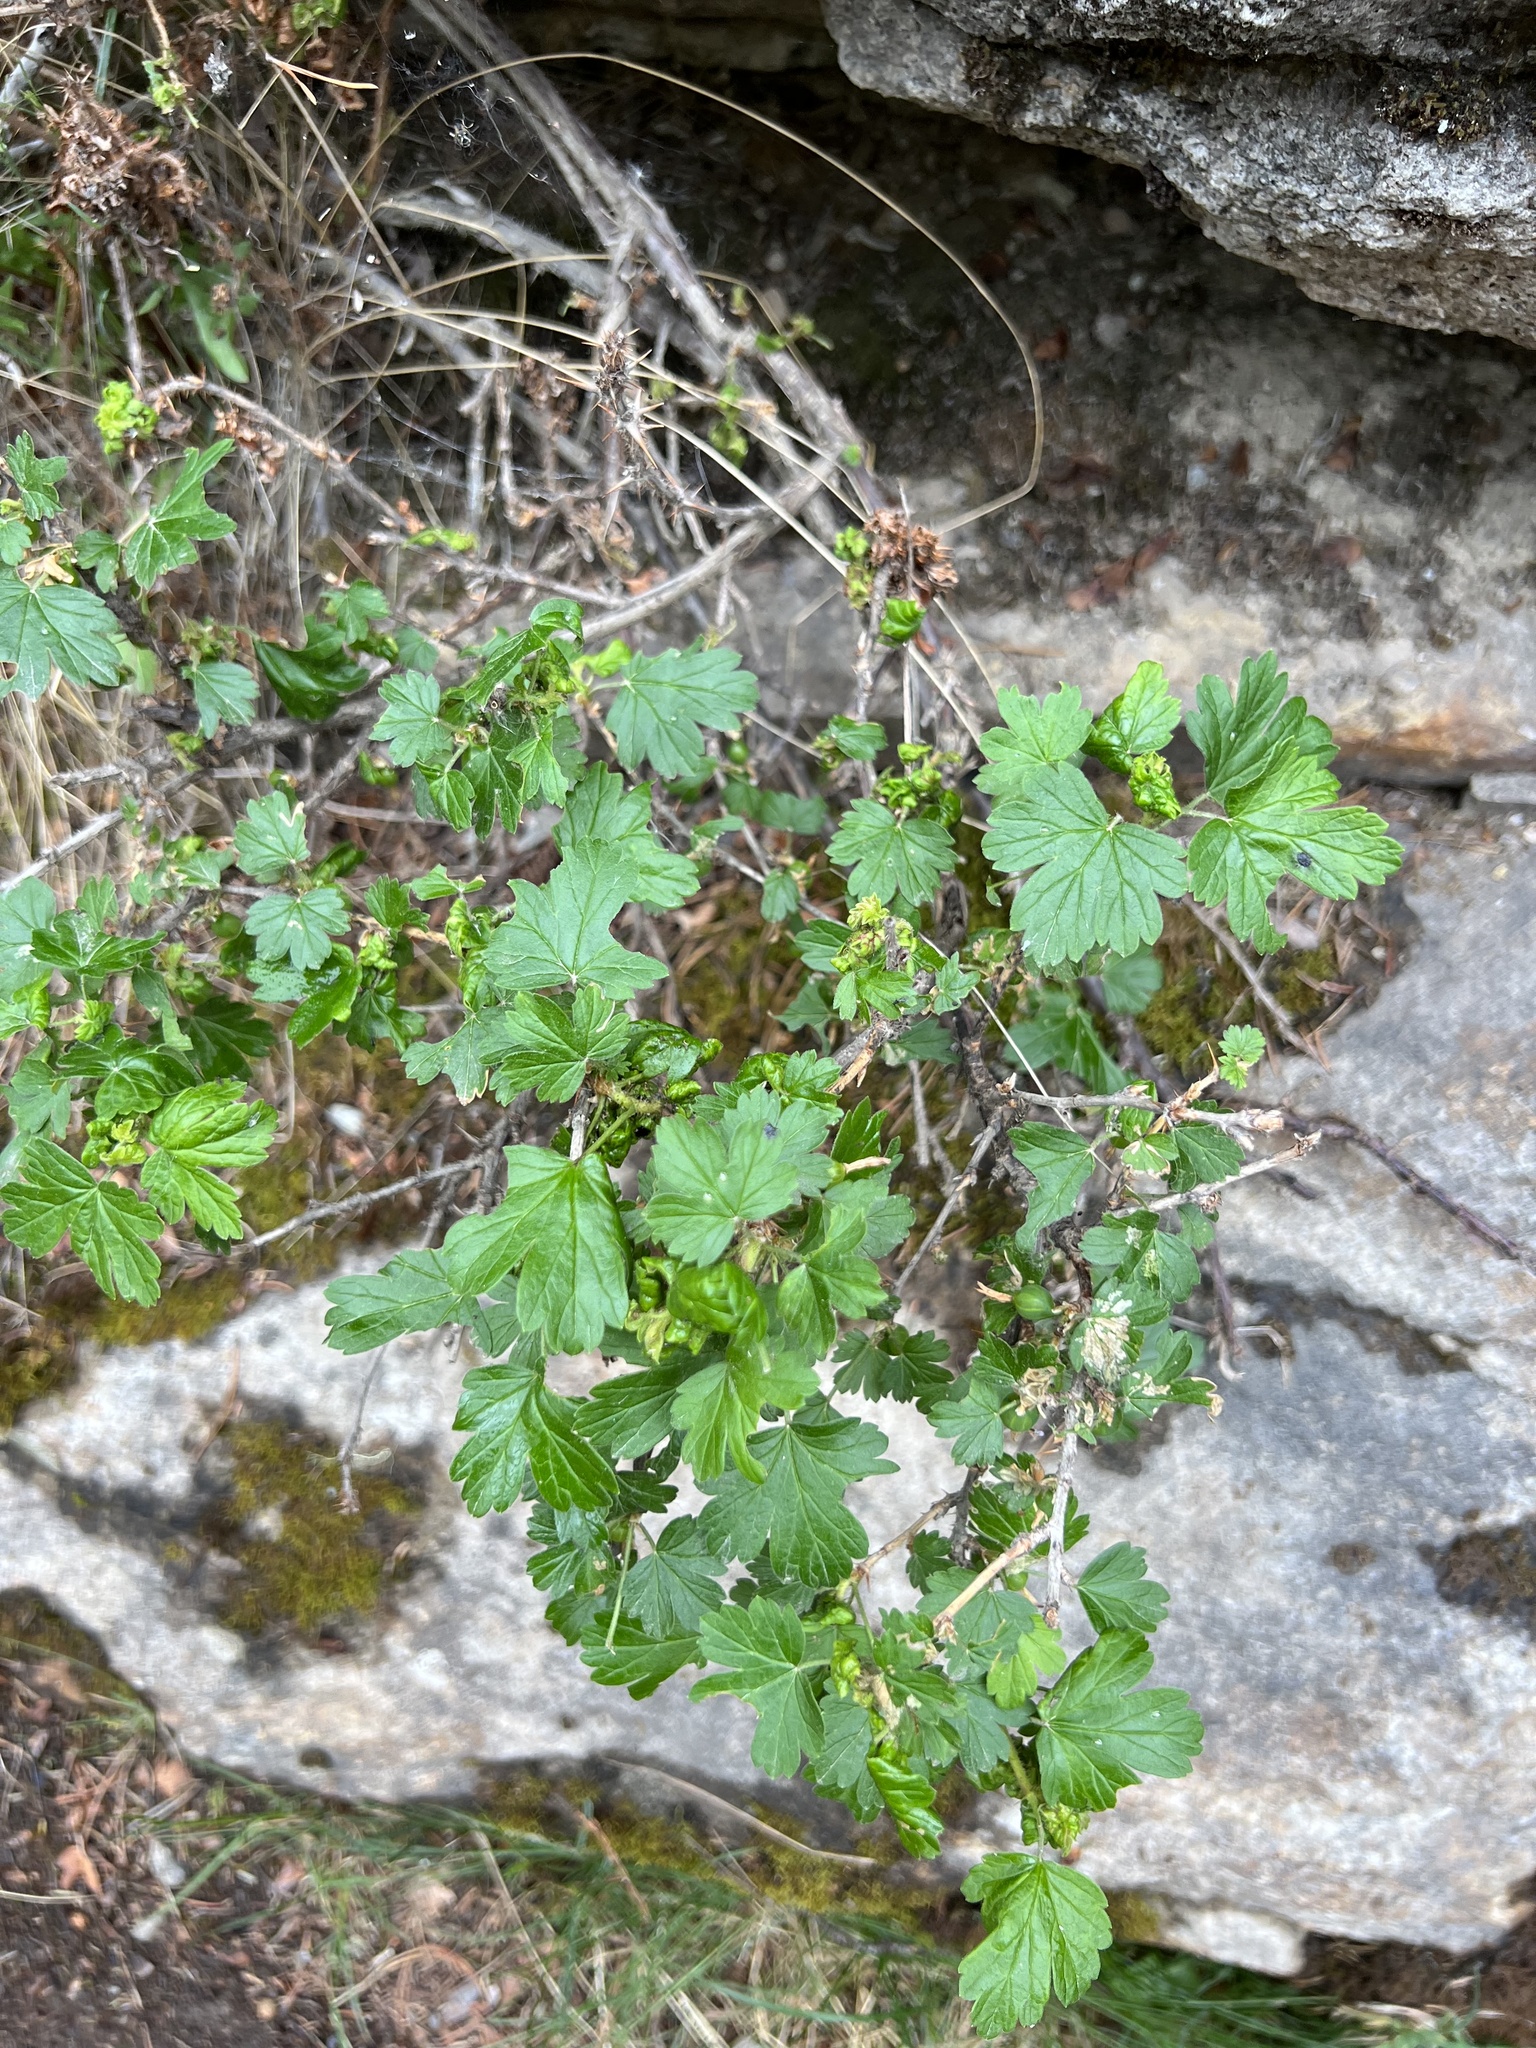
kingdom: Plantae
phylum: Tracheophyta
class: Magnoliopsida
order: Saxifragales
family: Grossulariaceae
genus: Ribes
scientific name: Ribes oxyacanthoides
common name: Northern gooseberry
